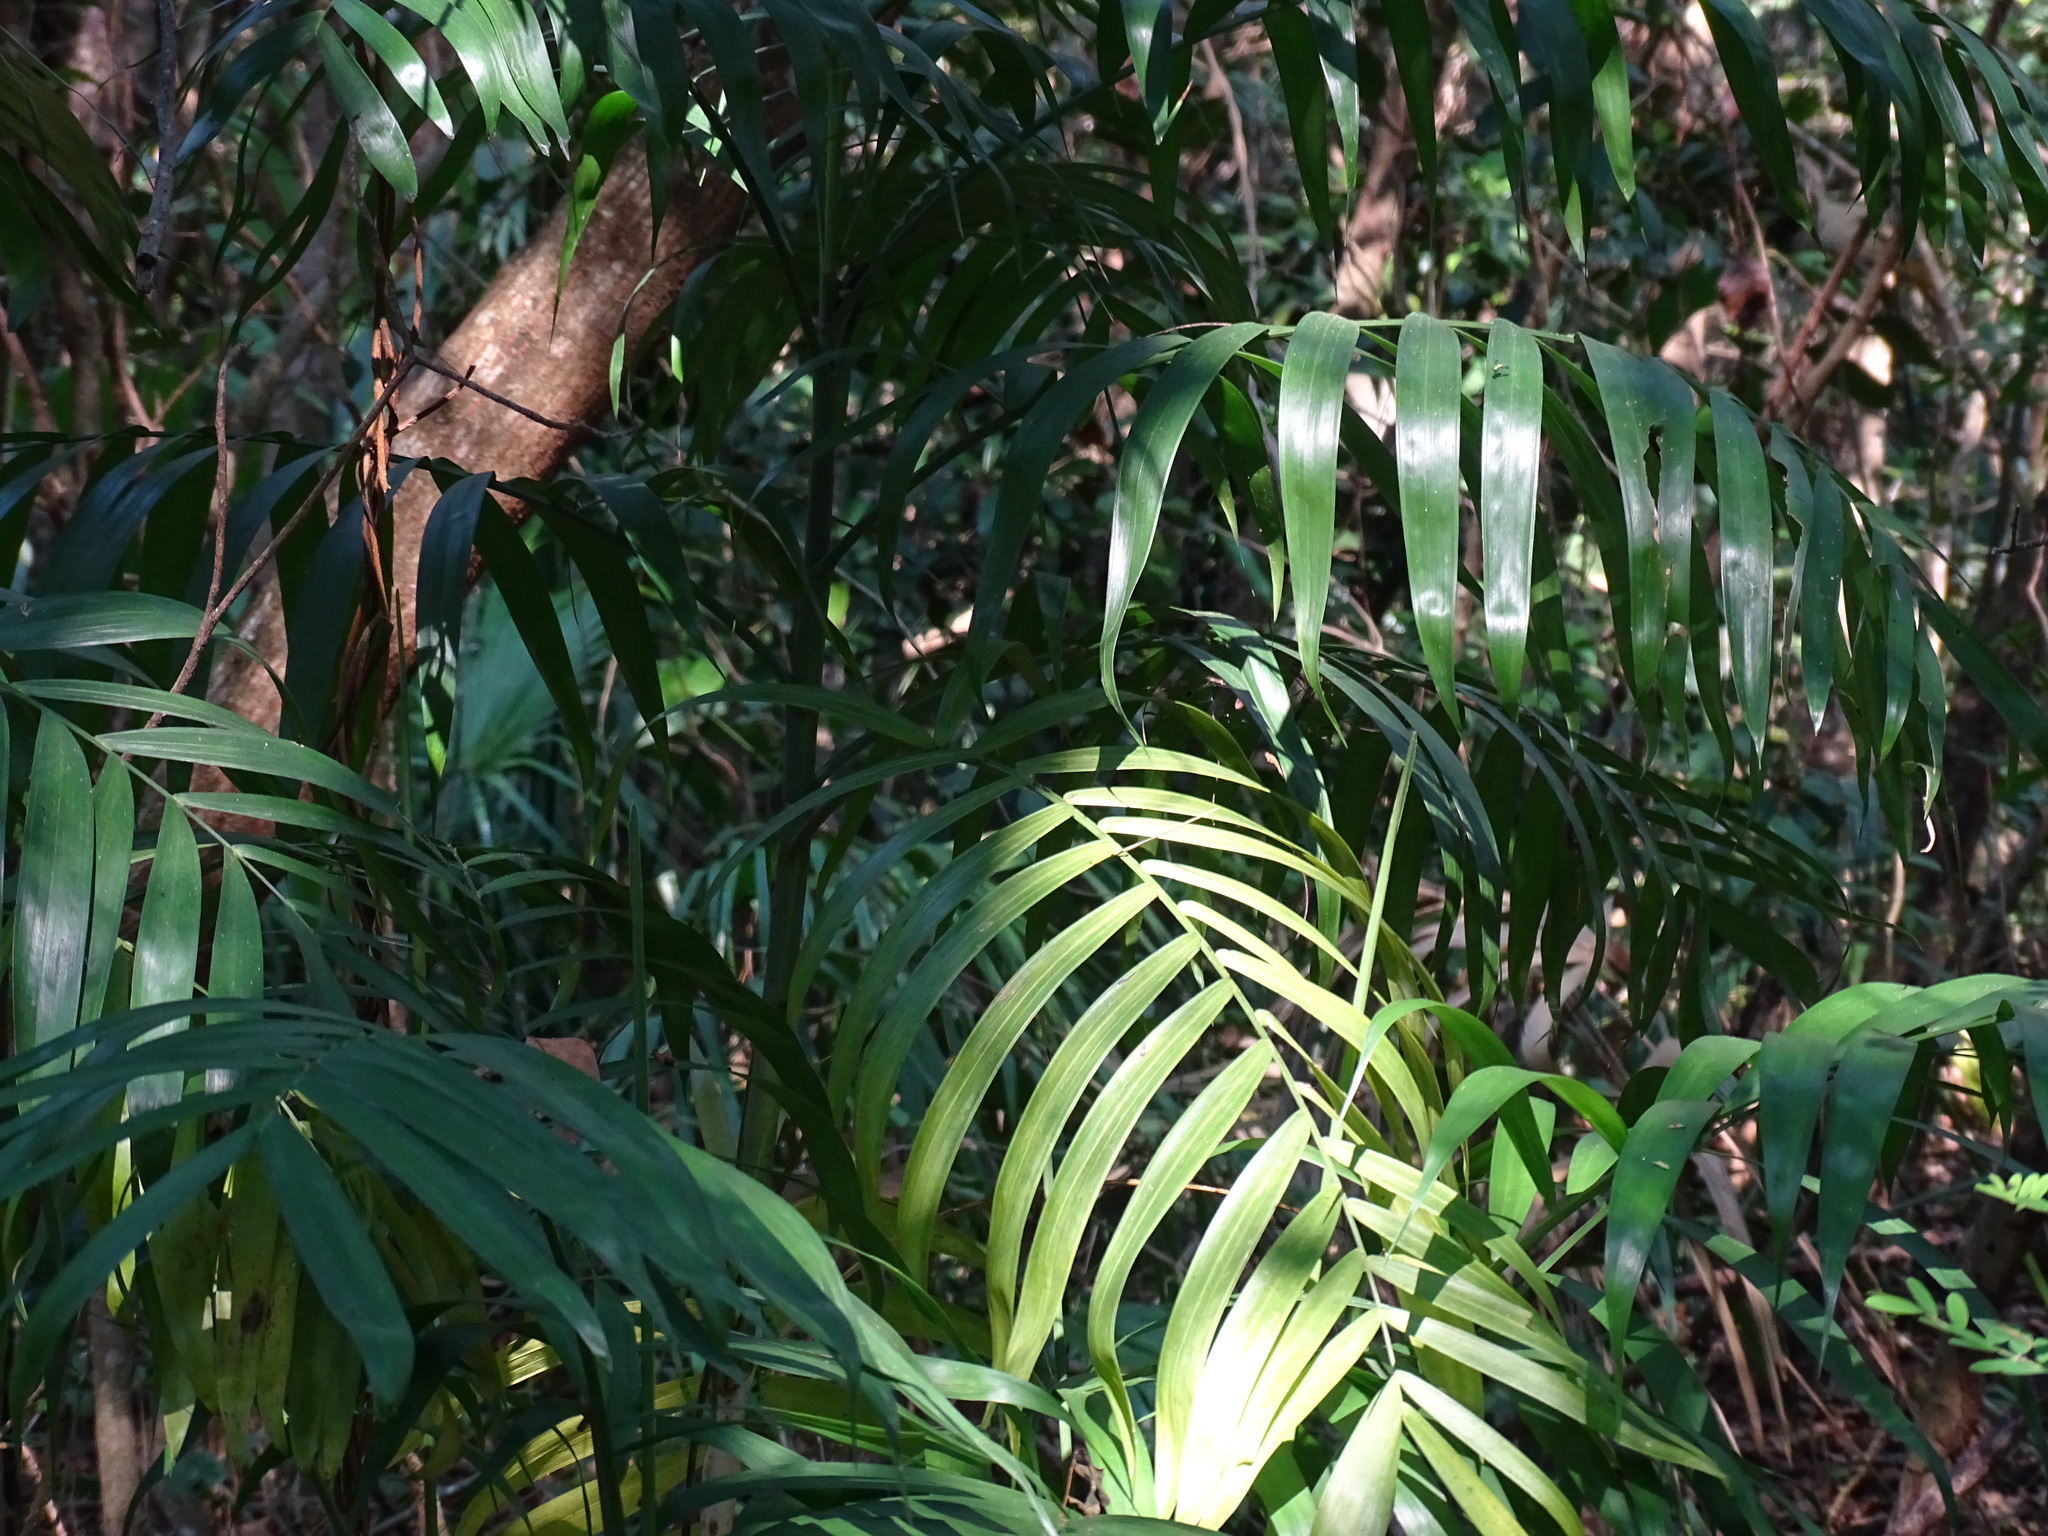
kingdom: Plantae
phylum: Tracheophyta
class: Liliopsida
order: Arecales
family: Arecaceae
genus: Chamaedorea
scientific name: Chamaedorea seifrizii
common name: Seifriz's chamaedorea
